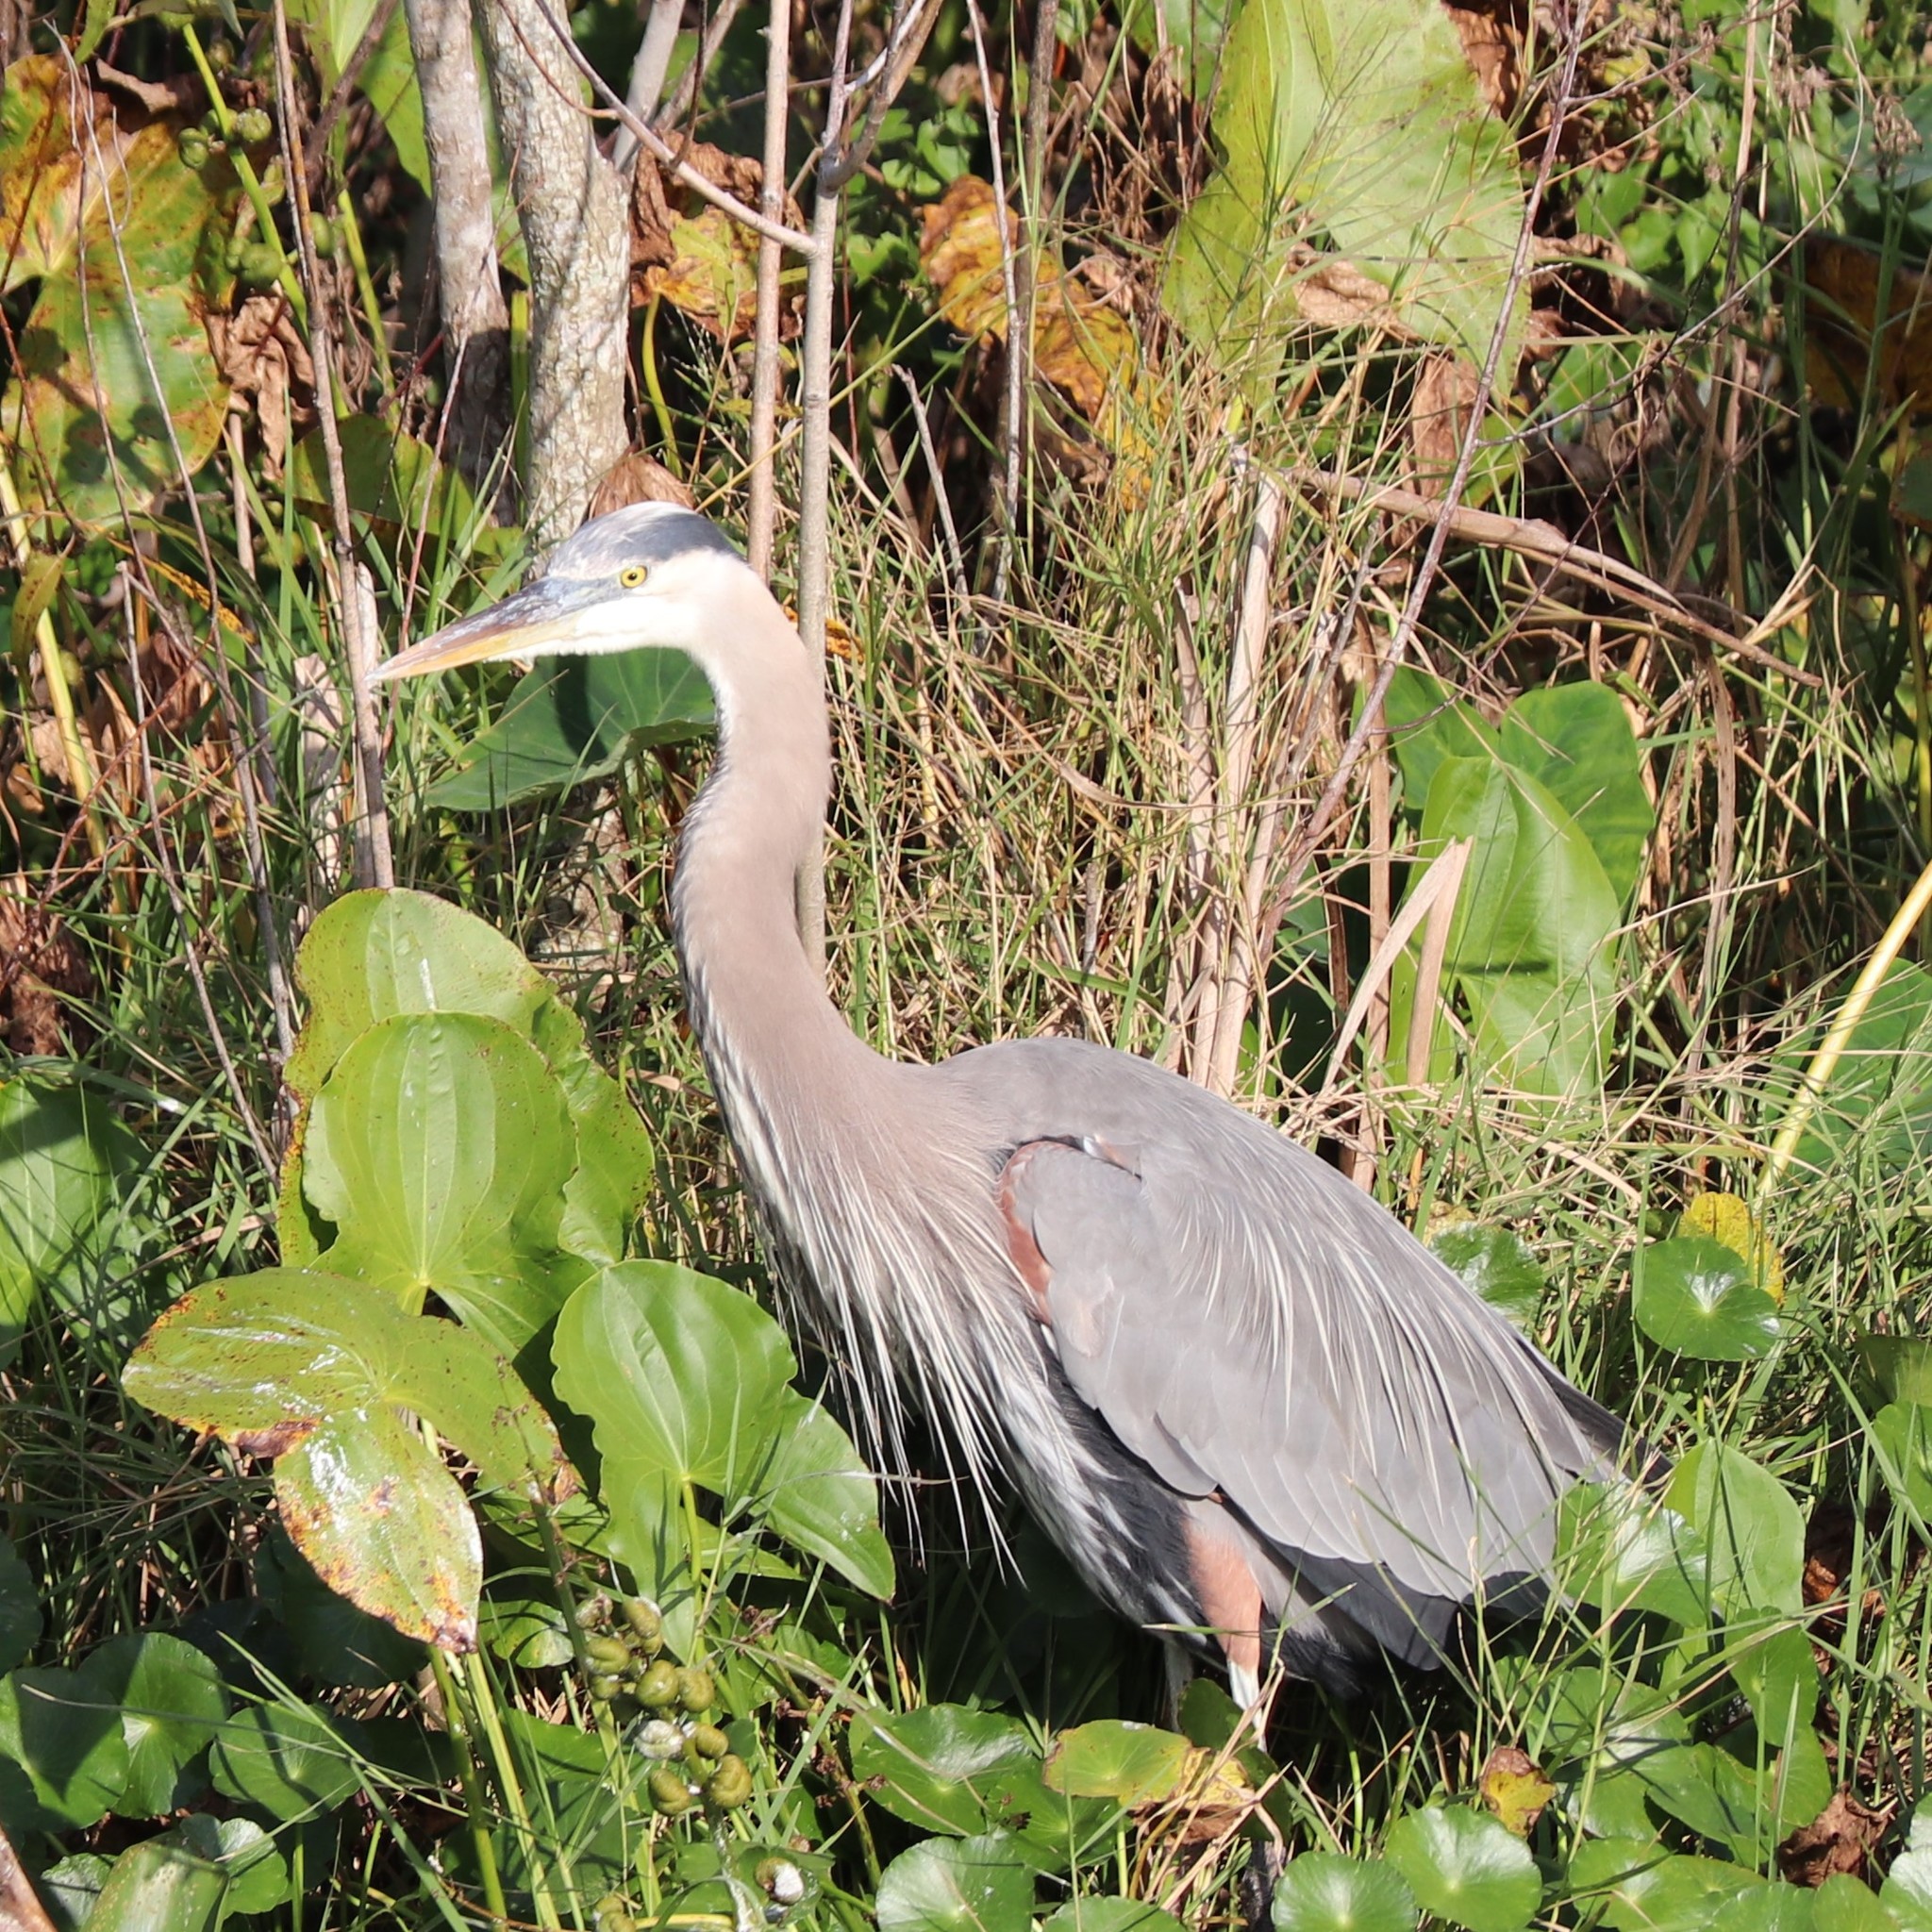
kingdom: Animalia
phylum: Chordata
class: Aves
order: Pelecaniformes
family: Ardeidae
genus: Ardea
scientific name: Ardea herodias
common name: Great blue heron
